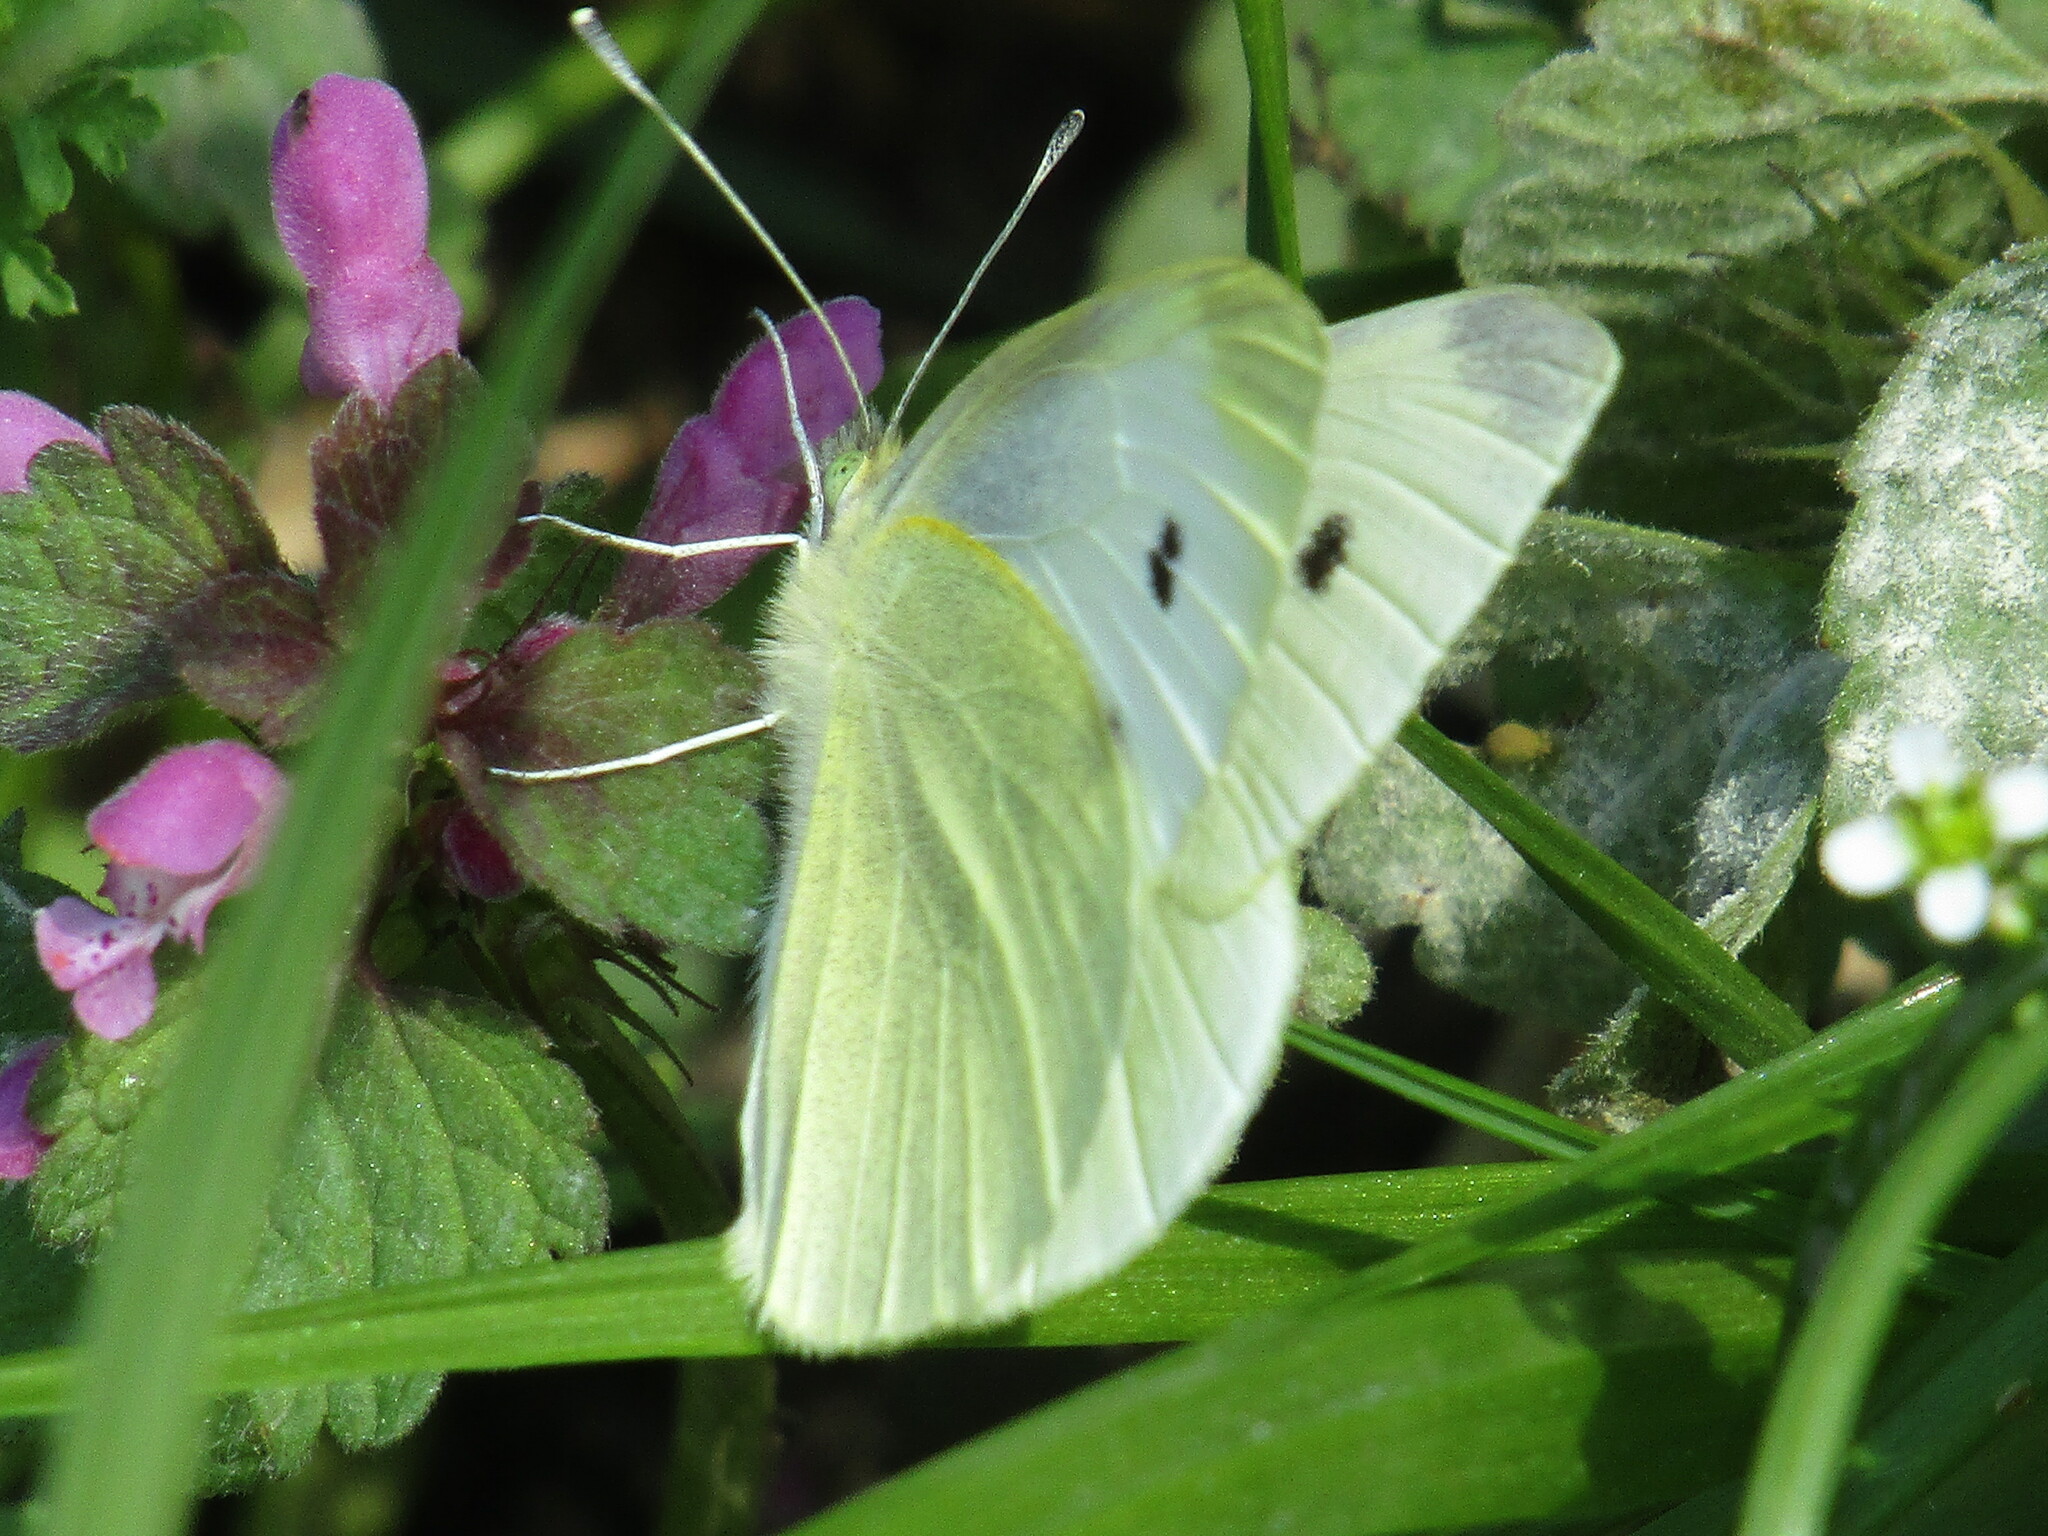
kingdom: Animalia
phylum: Arthropoda
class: Insecta
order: Lepidoptera
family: Pieridae
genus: Pieris
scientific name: Pieris rapae
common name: Small white
